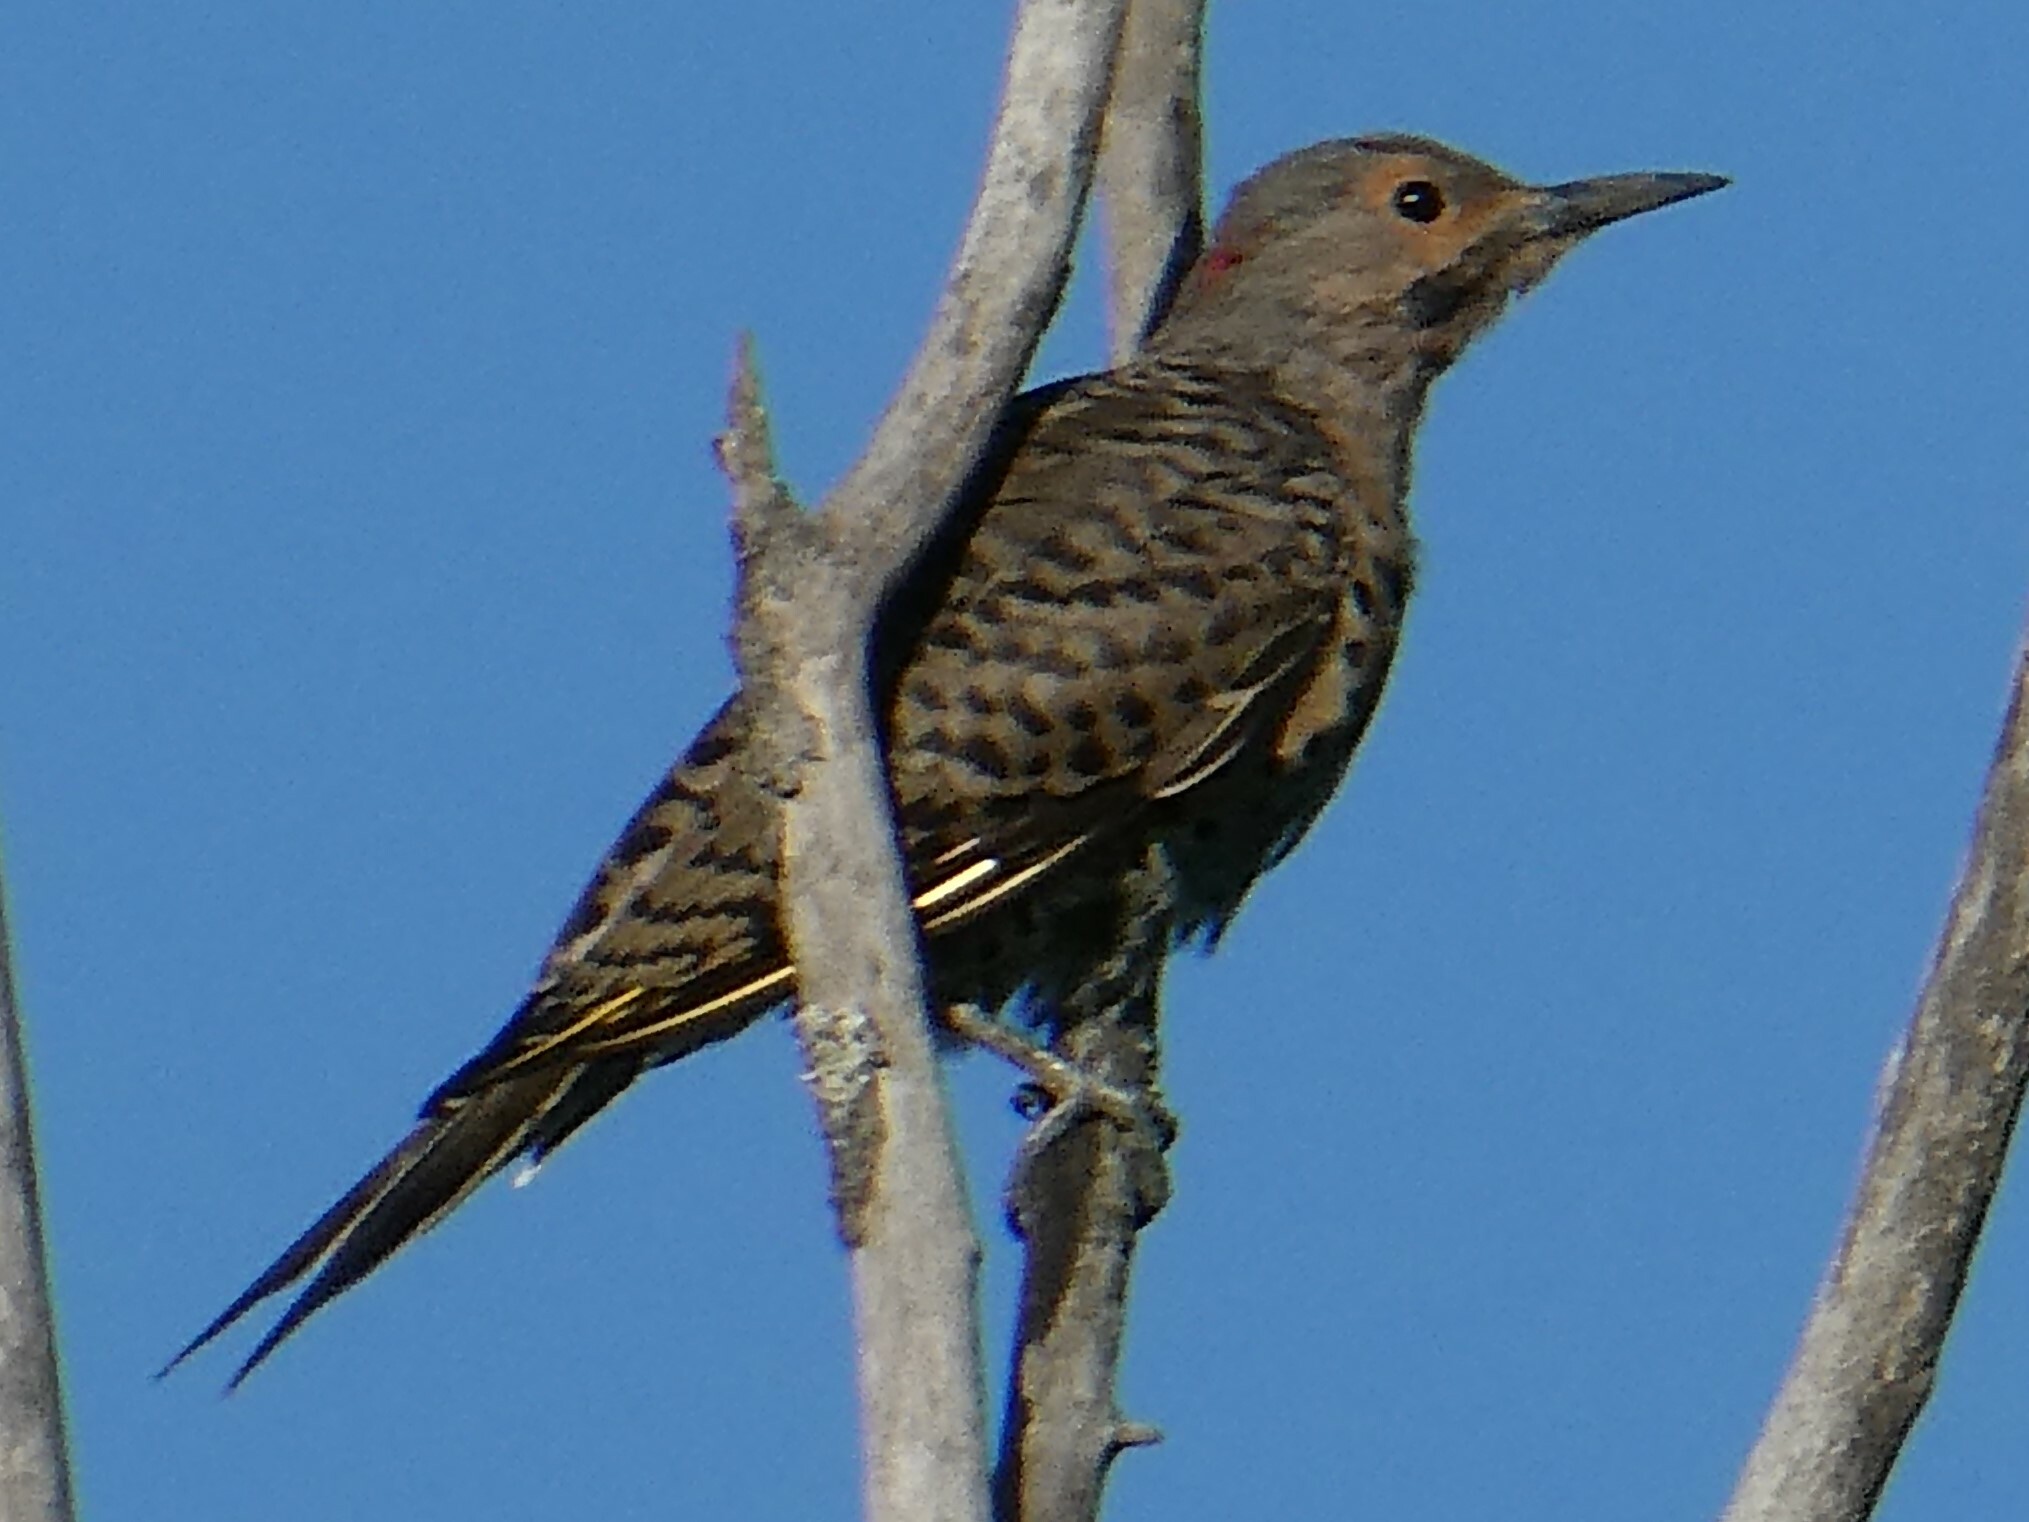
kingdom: Animalia
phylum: Chordata
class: Aves
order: Piciformes
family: Picidae
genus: Colaptes
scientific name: Colaptes auratus
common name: Northern flicker
